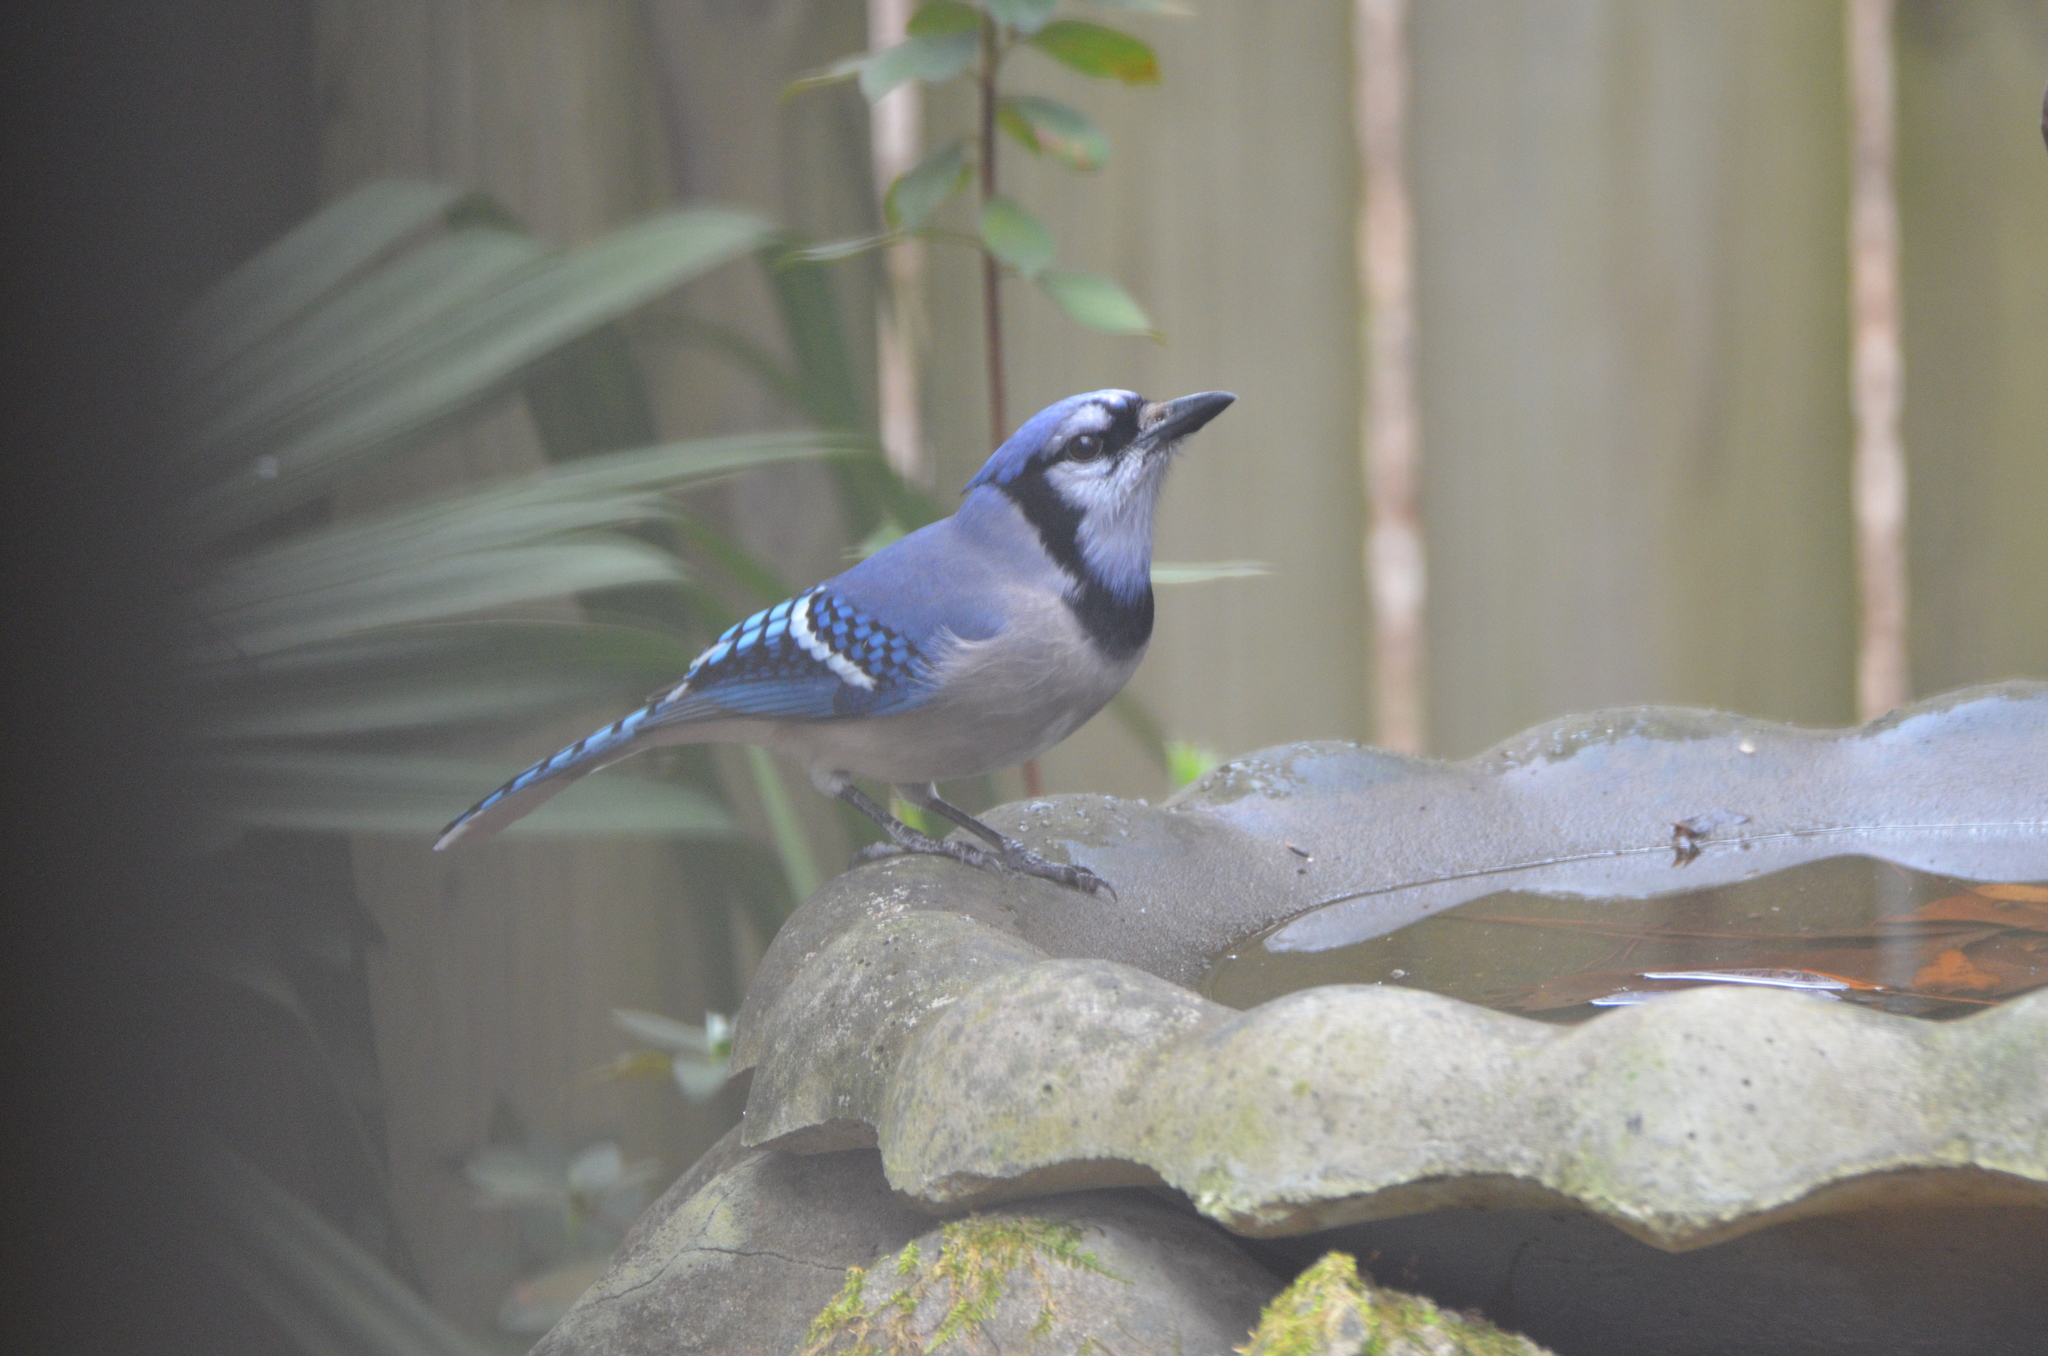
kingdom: Animalia
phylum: Chordata
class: Aves
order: Passeriformes
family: Corvidae
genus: Cyanocitta
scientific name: Cyanocitta cristata
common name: Blue jay
